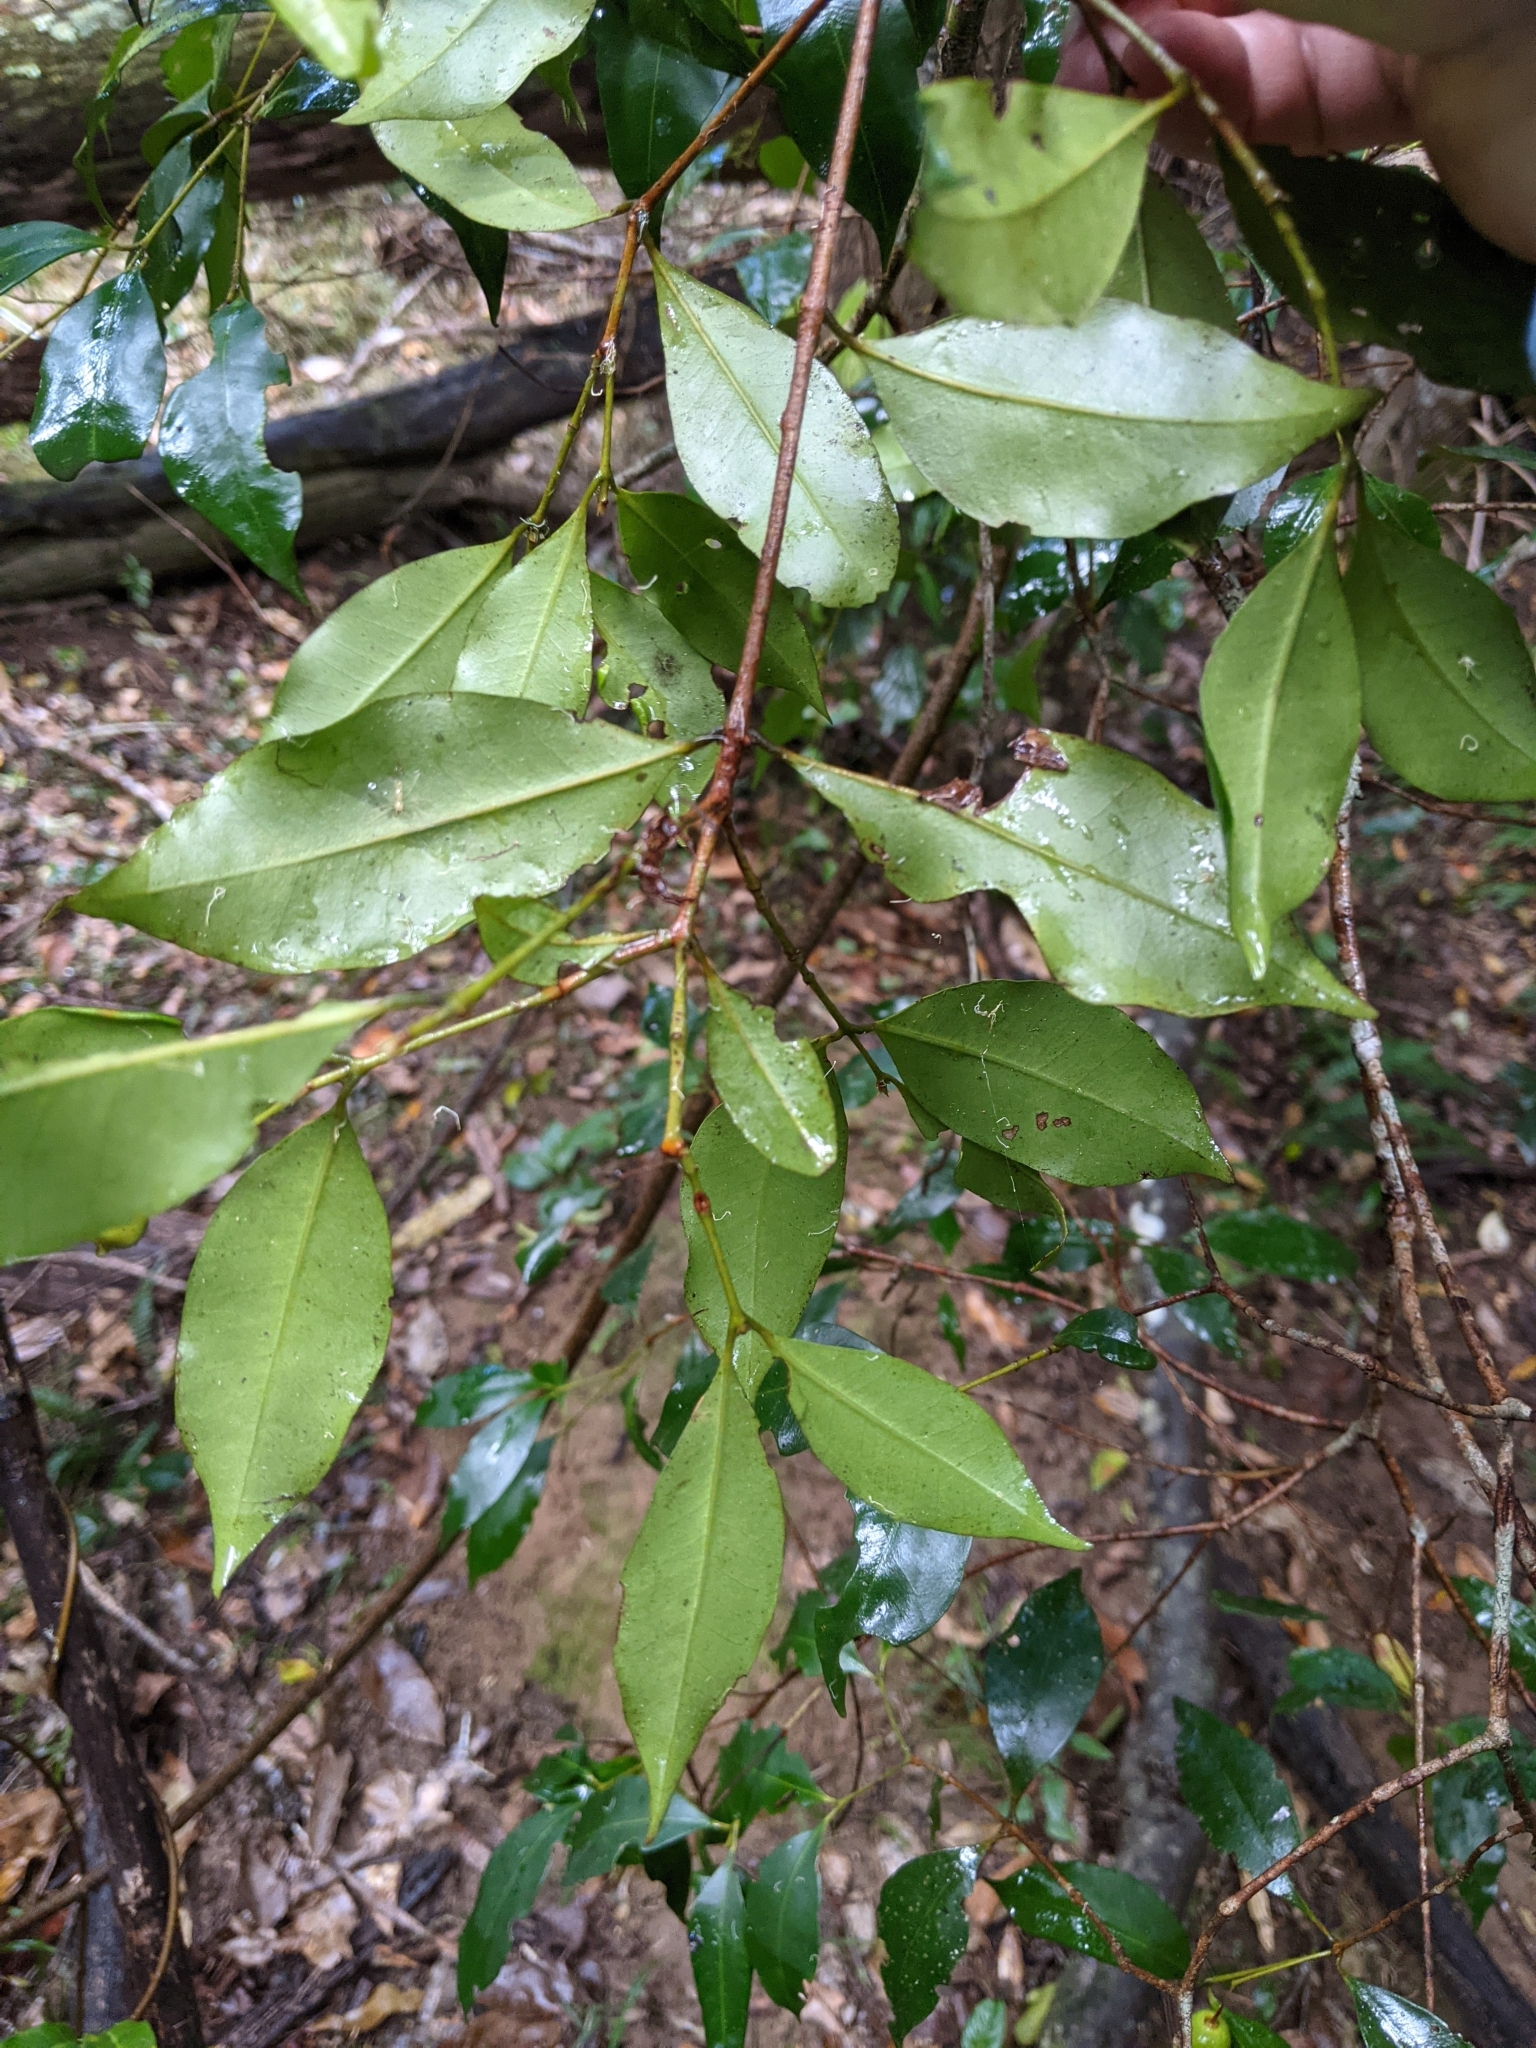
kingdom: Plantae
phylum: Tracheophyta
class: Magnoliopsida
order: Myrtales
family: Myrtaceae
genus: Syzygium
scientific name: Syzygium oleosum
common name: Oily satin-ash
